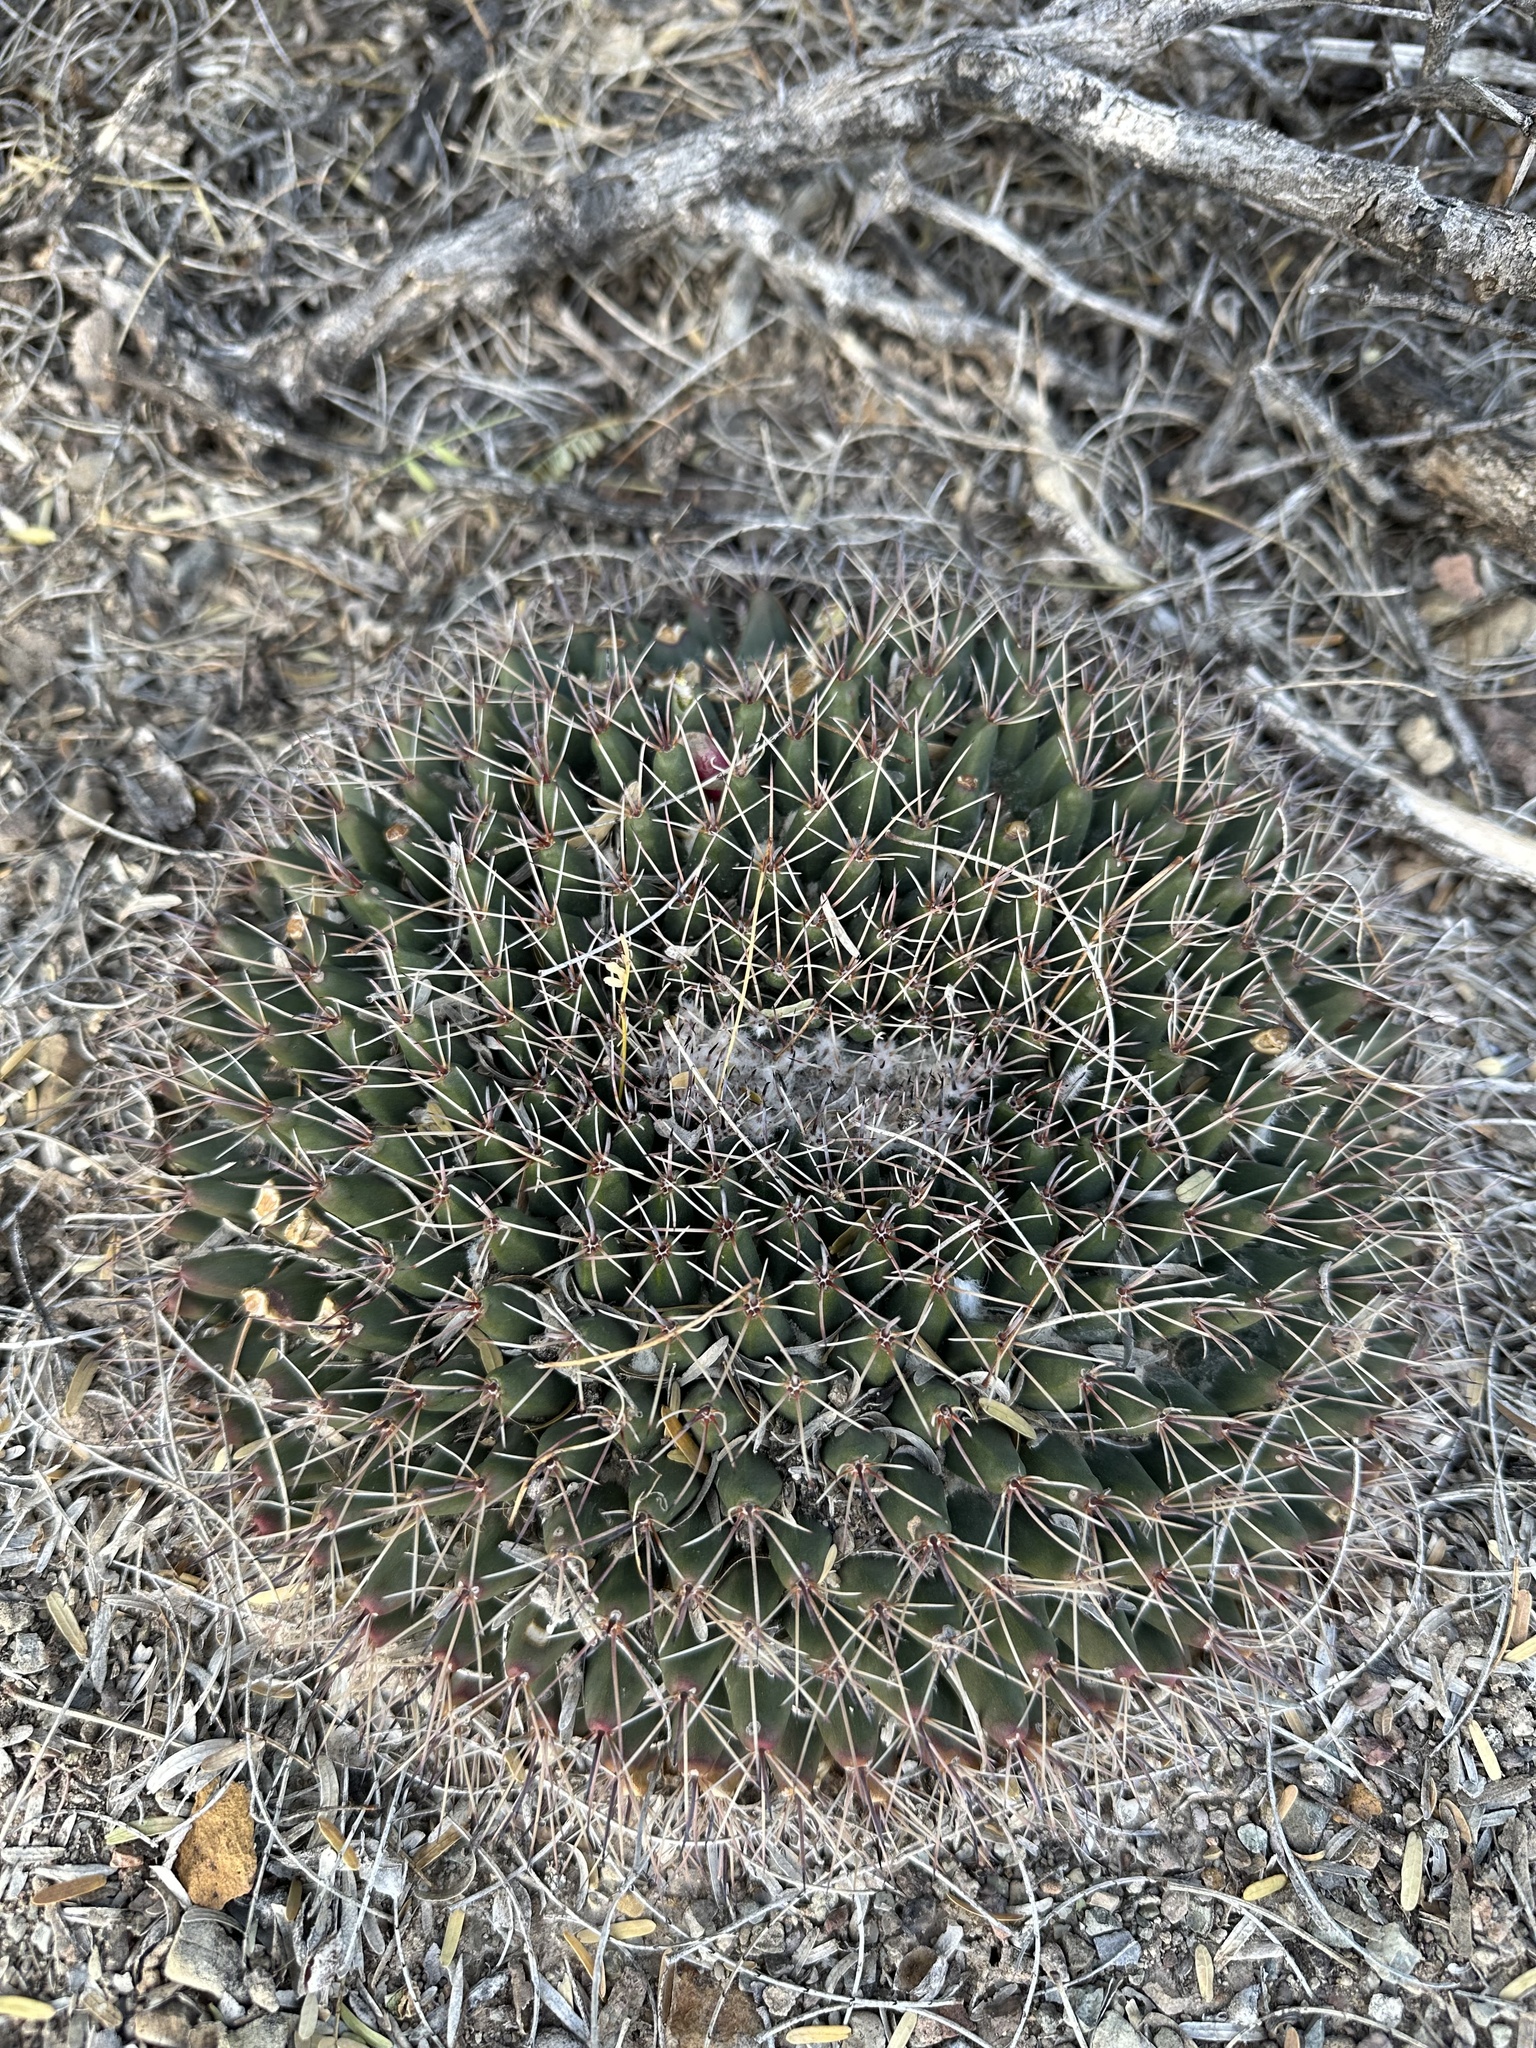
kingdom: Plantae
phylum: Tracheophyta
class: Magnoliopsida
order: Caryophyllales
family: Cactaceae
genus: Mammillaria
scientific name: Mammillaria heyderi
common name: Little nipple cactus
